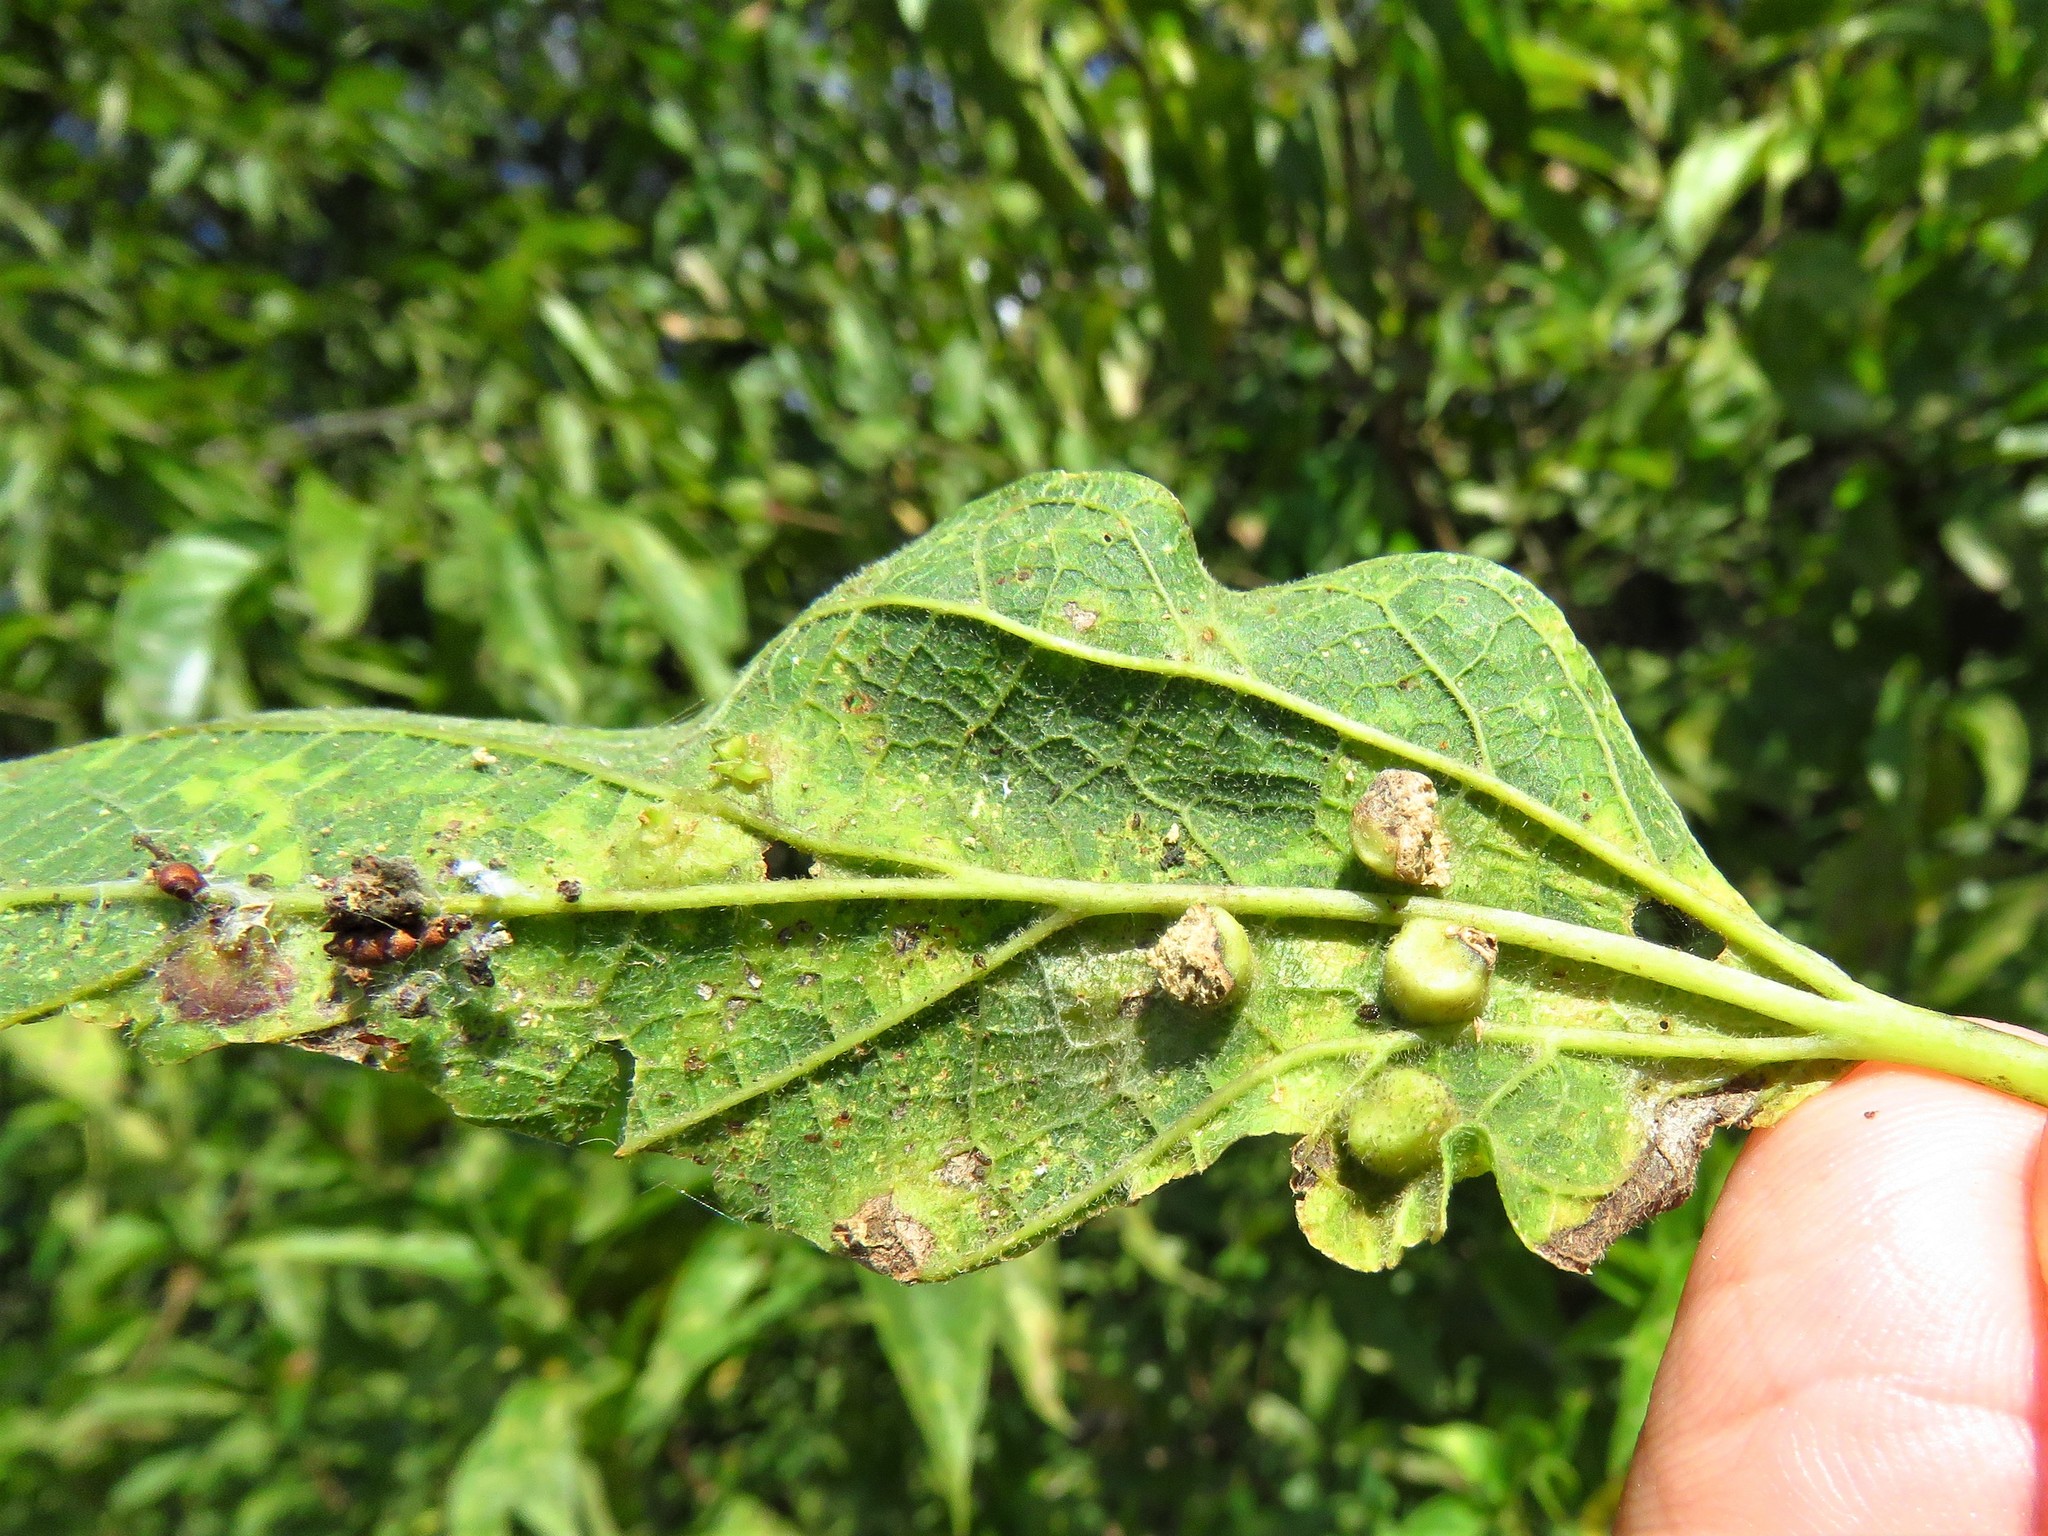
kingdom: Animalia
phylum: Arthropoda
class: Insecta
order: Hemiptera
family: Aphalaridae
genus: Pachypsylla
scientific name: Pachypsylla celtidismamma
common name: Hackberry nipplegall psyllid
